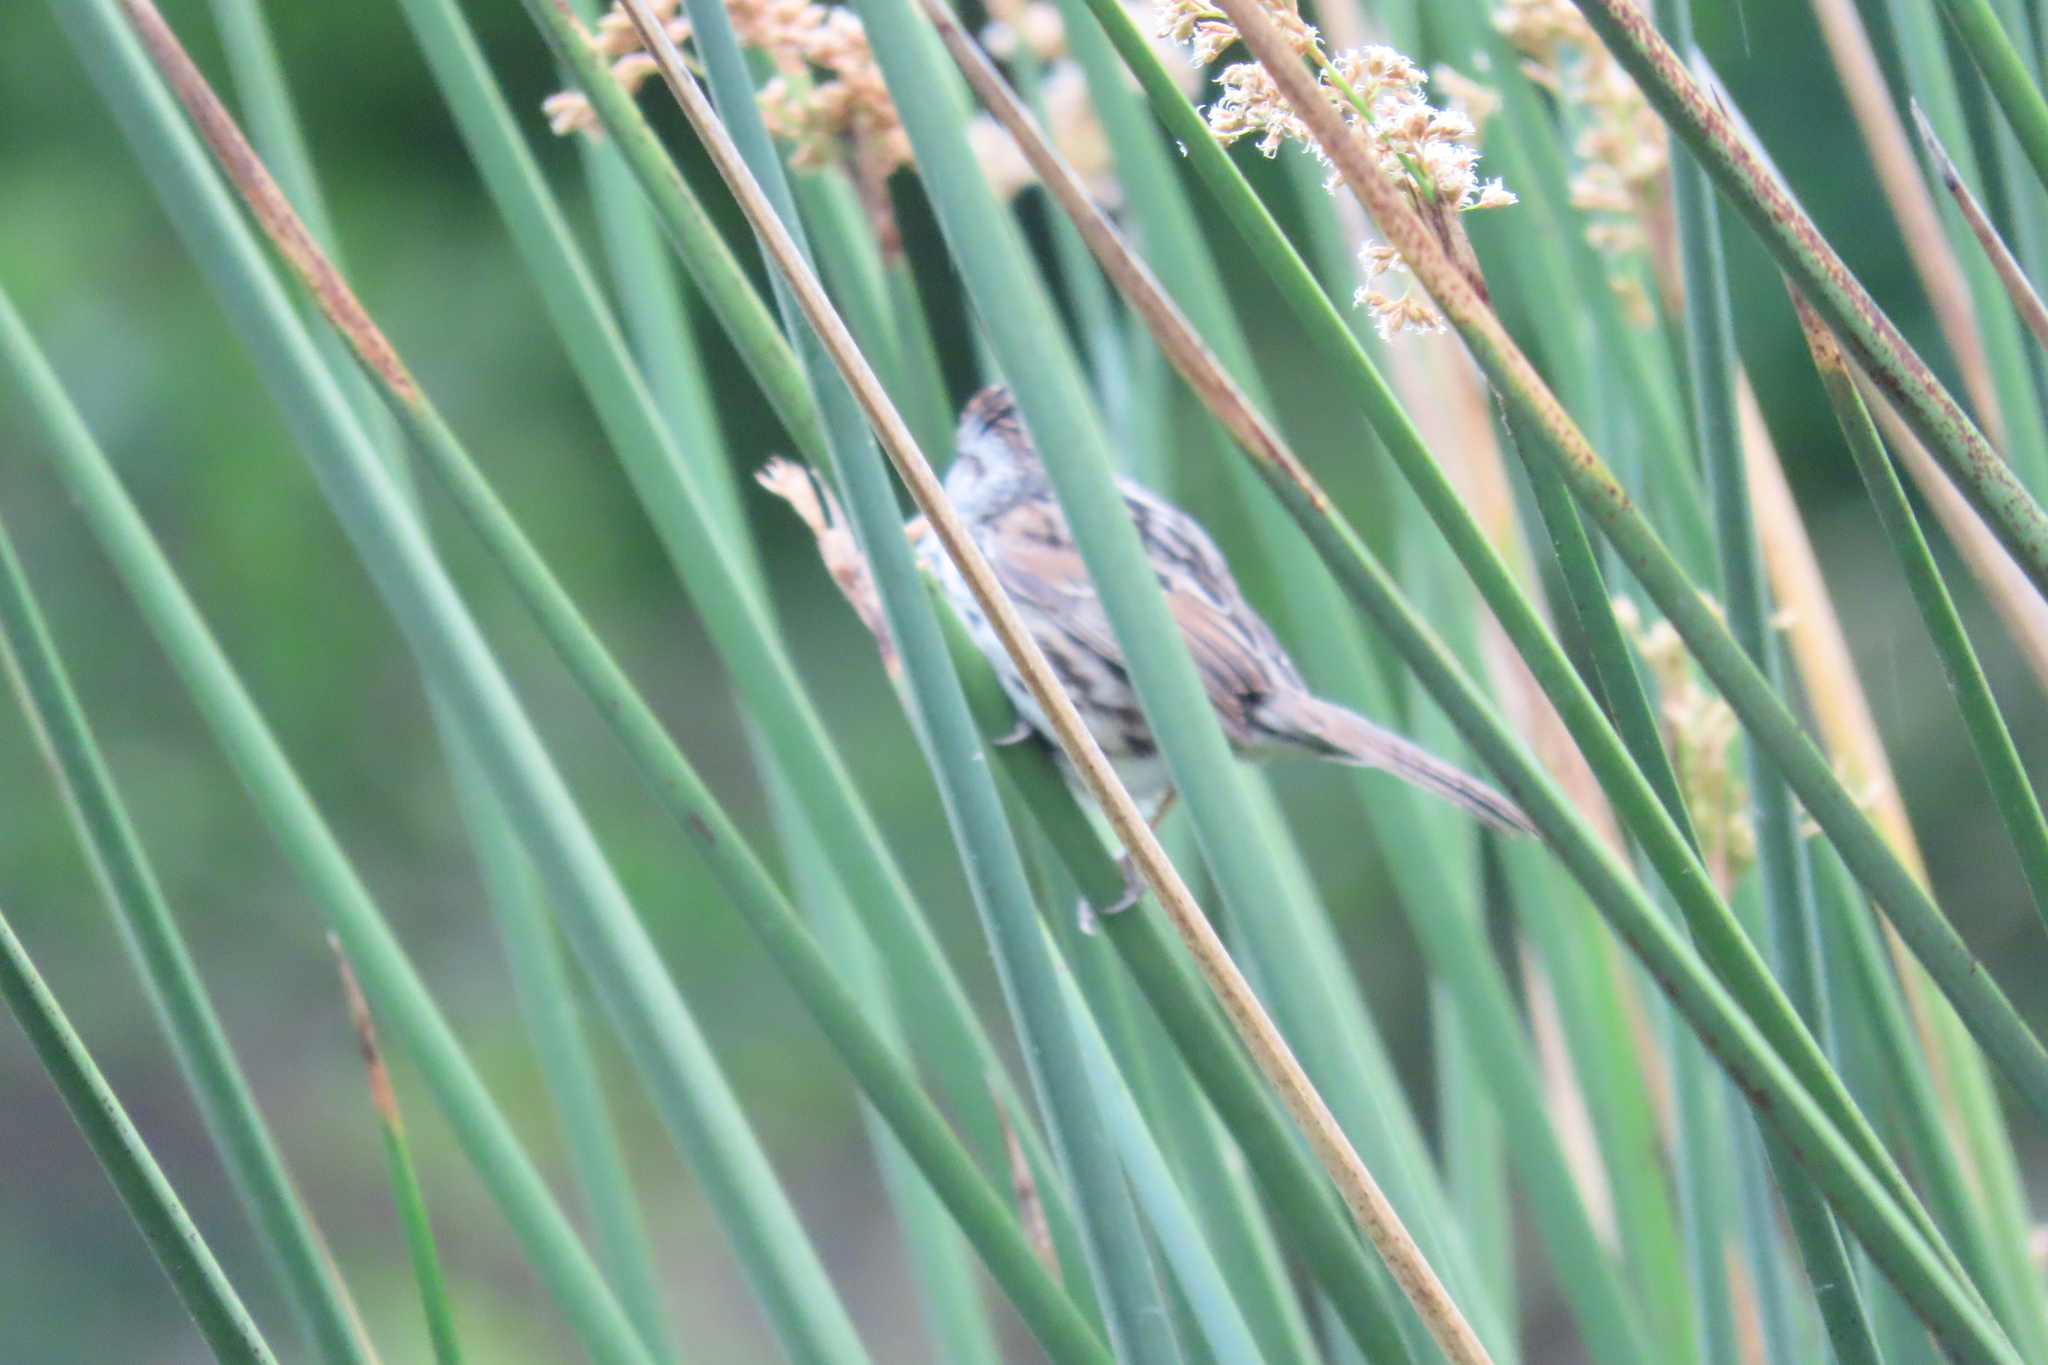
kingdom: Animalia
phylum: Chordata
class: Aves
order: Passeriformes
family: Passerellidae
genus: Melospiza
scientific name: Melospiza melodia
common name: Song sparrow
